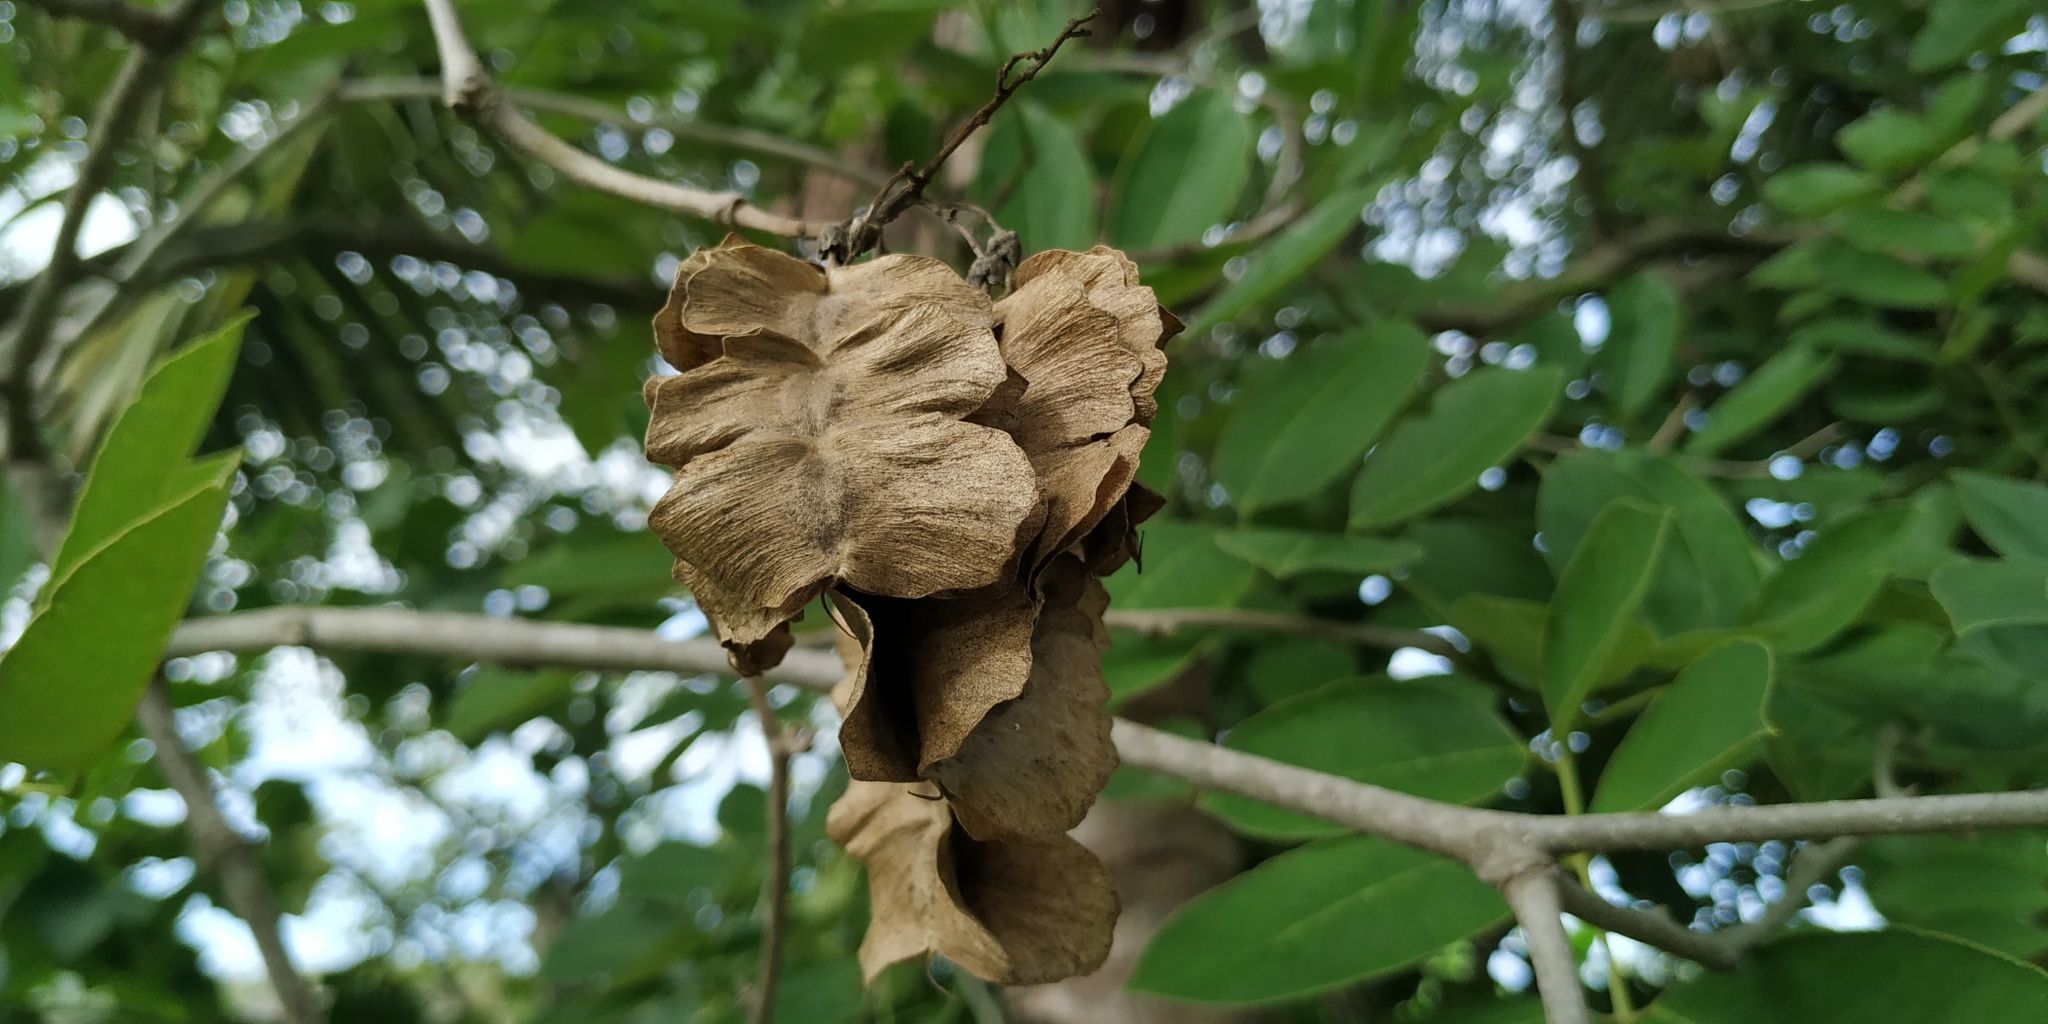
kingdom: Plantae
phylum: Tracheophyta
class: Magnoliopsida
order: Fabales
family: Fabaceae
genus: Piscidia
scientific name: Piscidia piscipula
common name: Florida fishpoison tree
